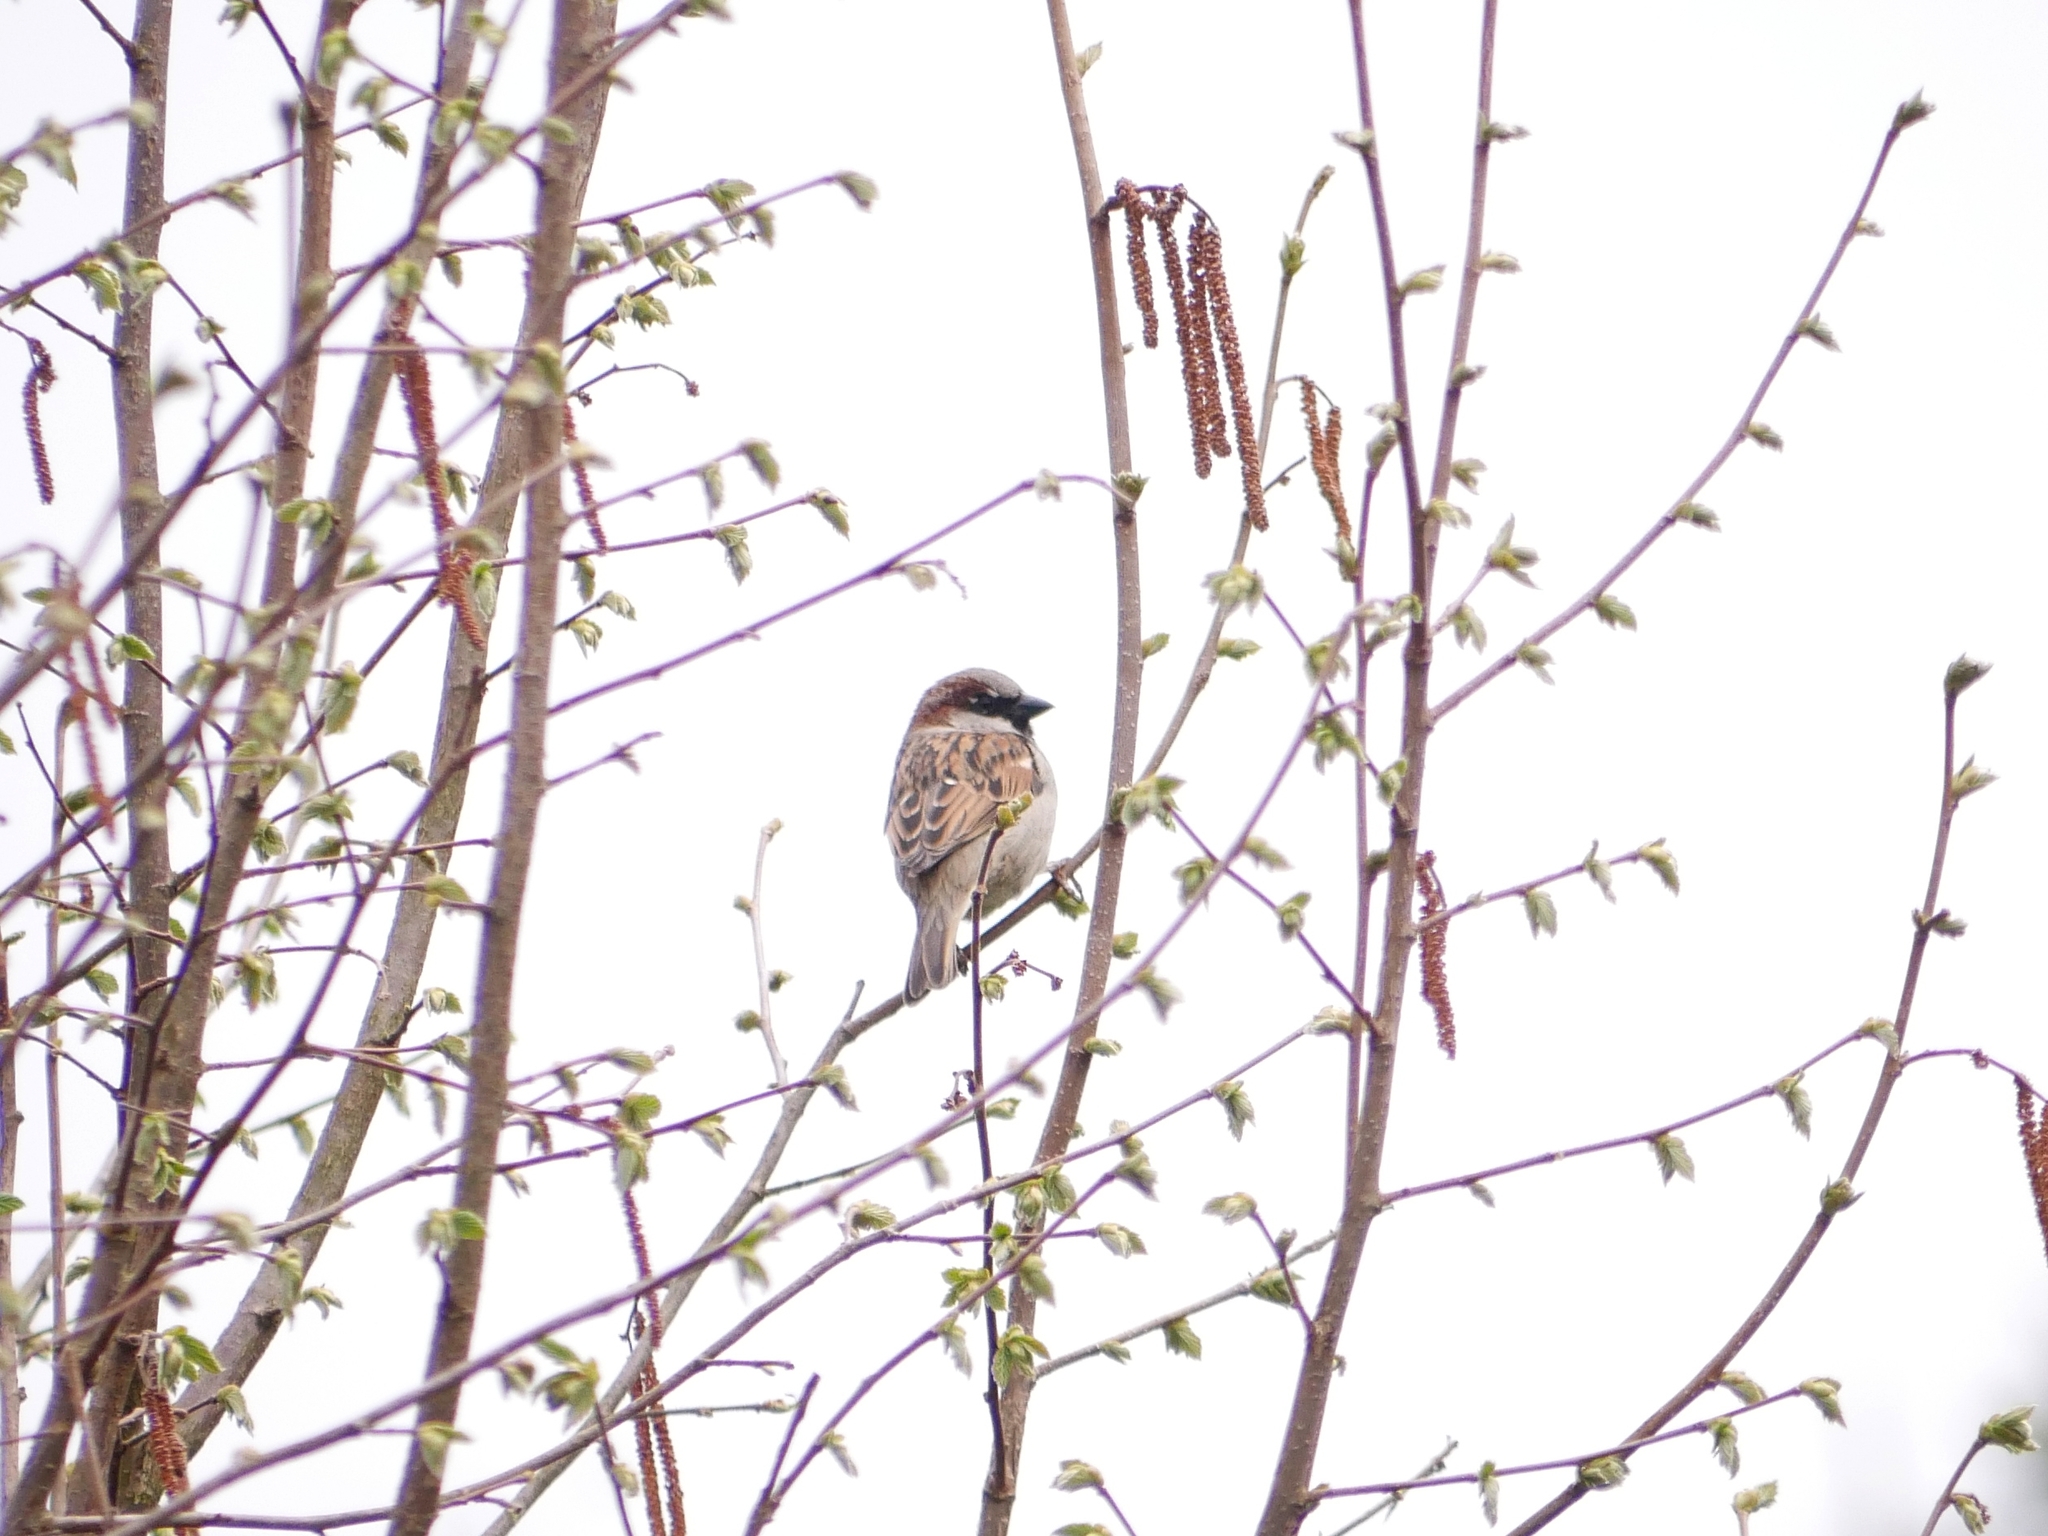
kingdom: Animalia
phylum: Chordata
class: Aves
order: Passeriformes
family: Passeridae
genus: Passer
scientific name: Passer domesticus
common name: House sparrow
